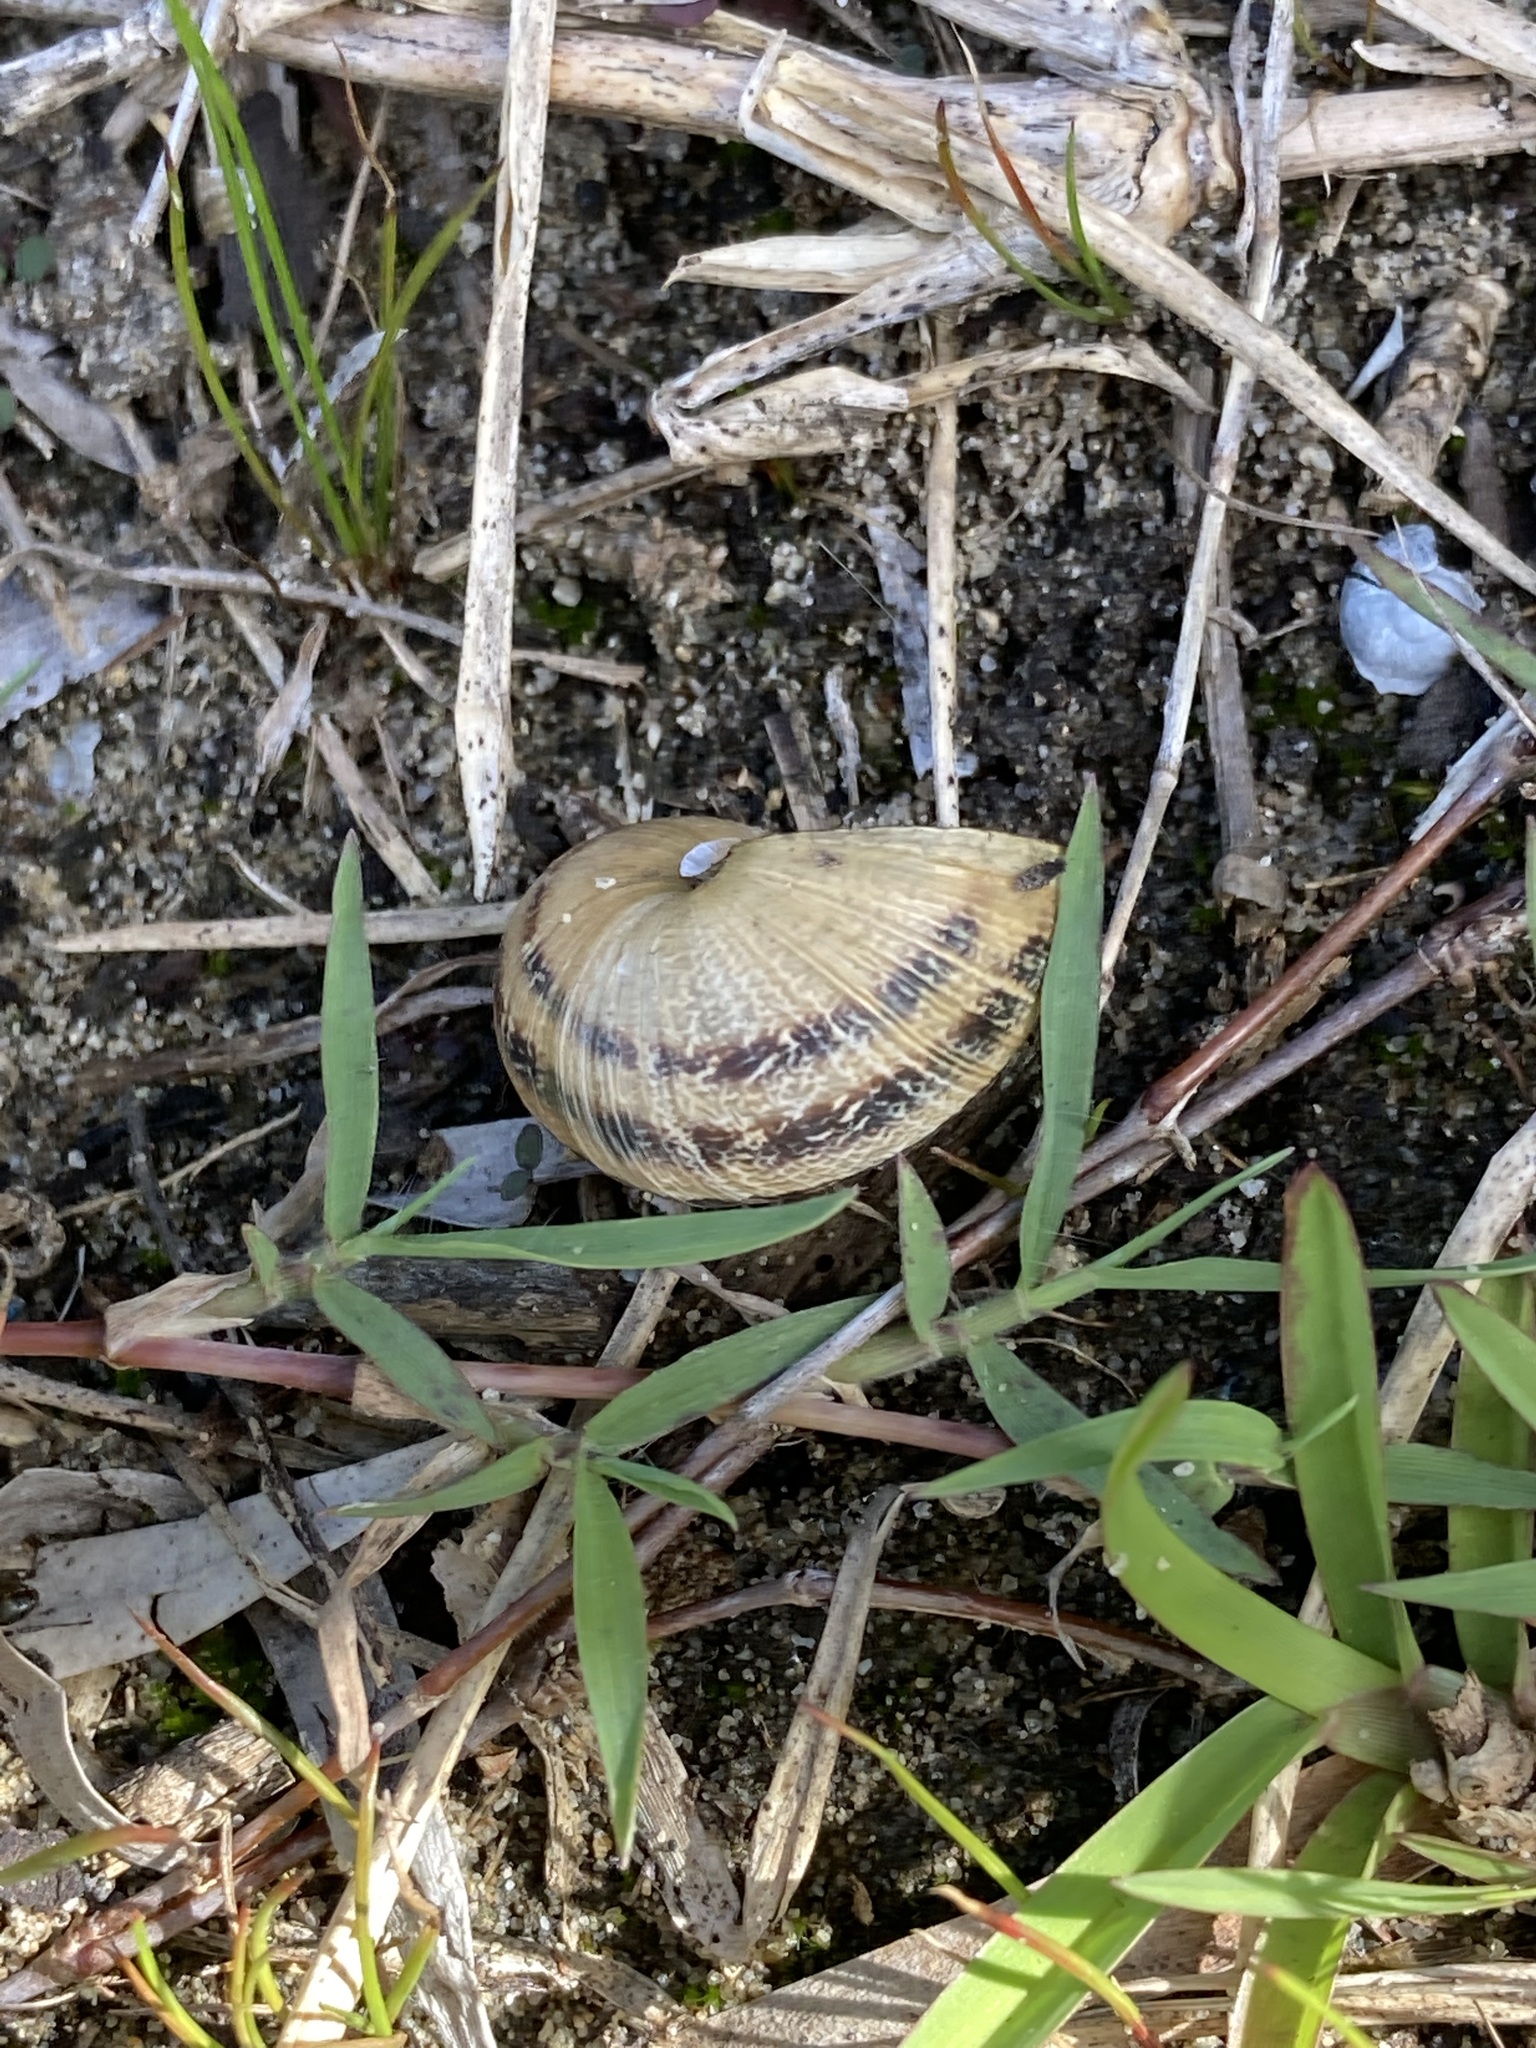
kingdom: Animalia
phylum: Mollusca
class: Gastropoda
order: Stylommatophora
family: Helicidae
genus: Cornu
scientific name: Cornu aspersum
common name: Brown garden snail
